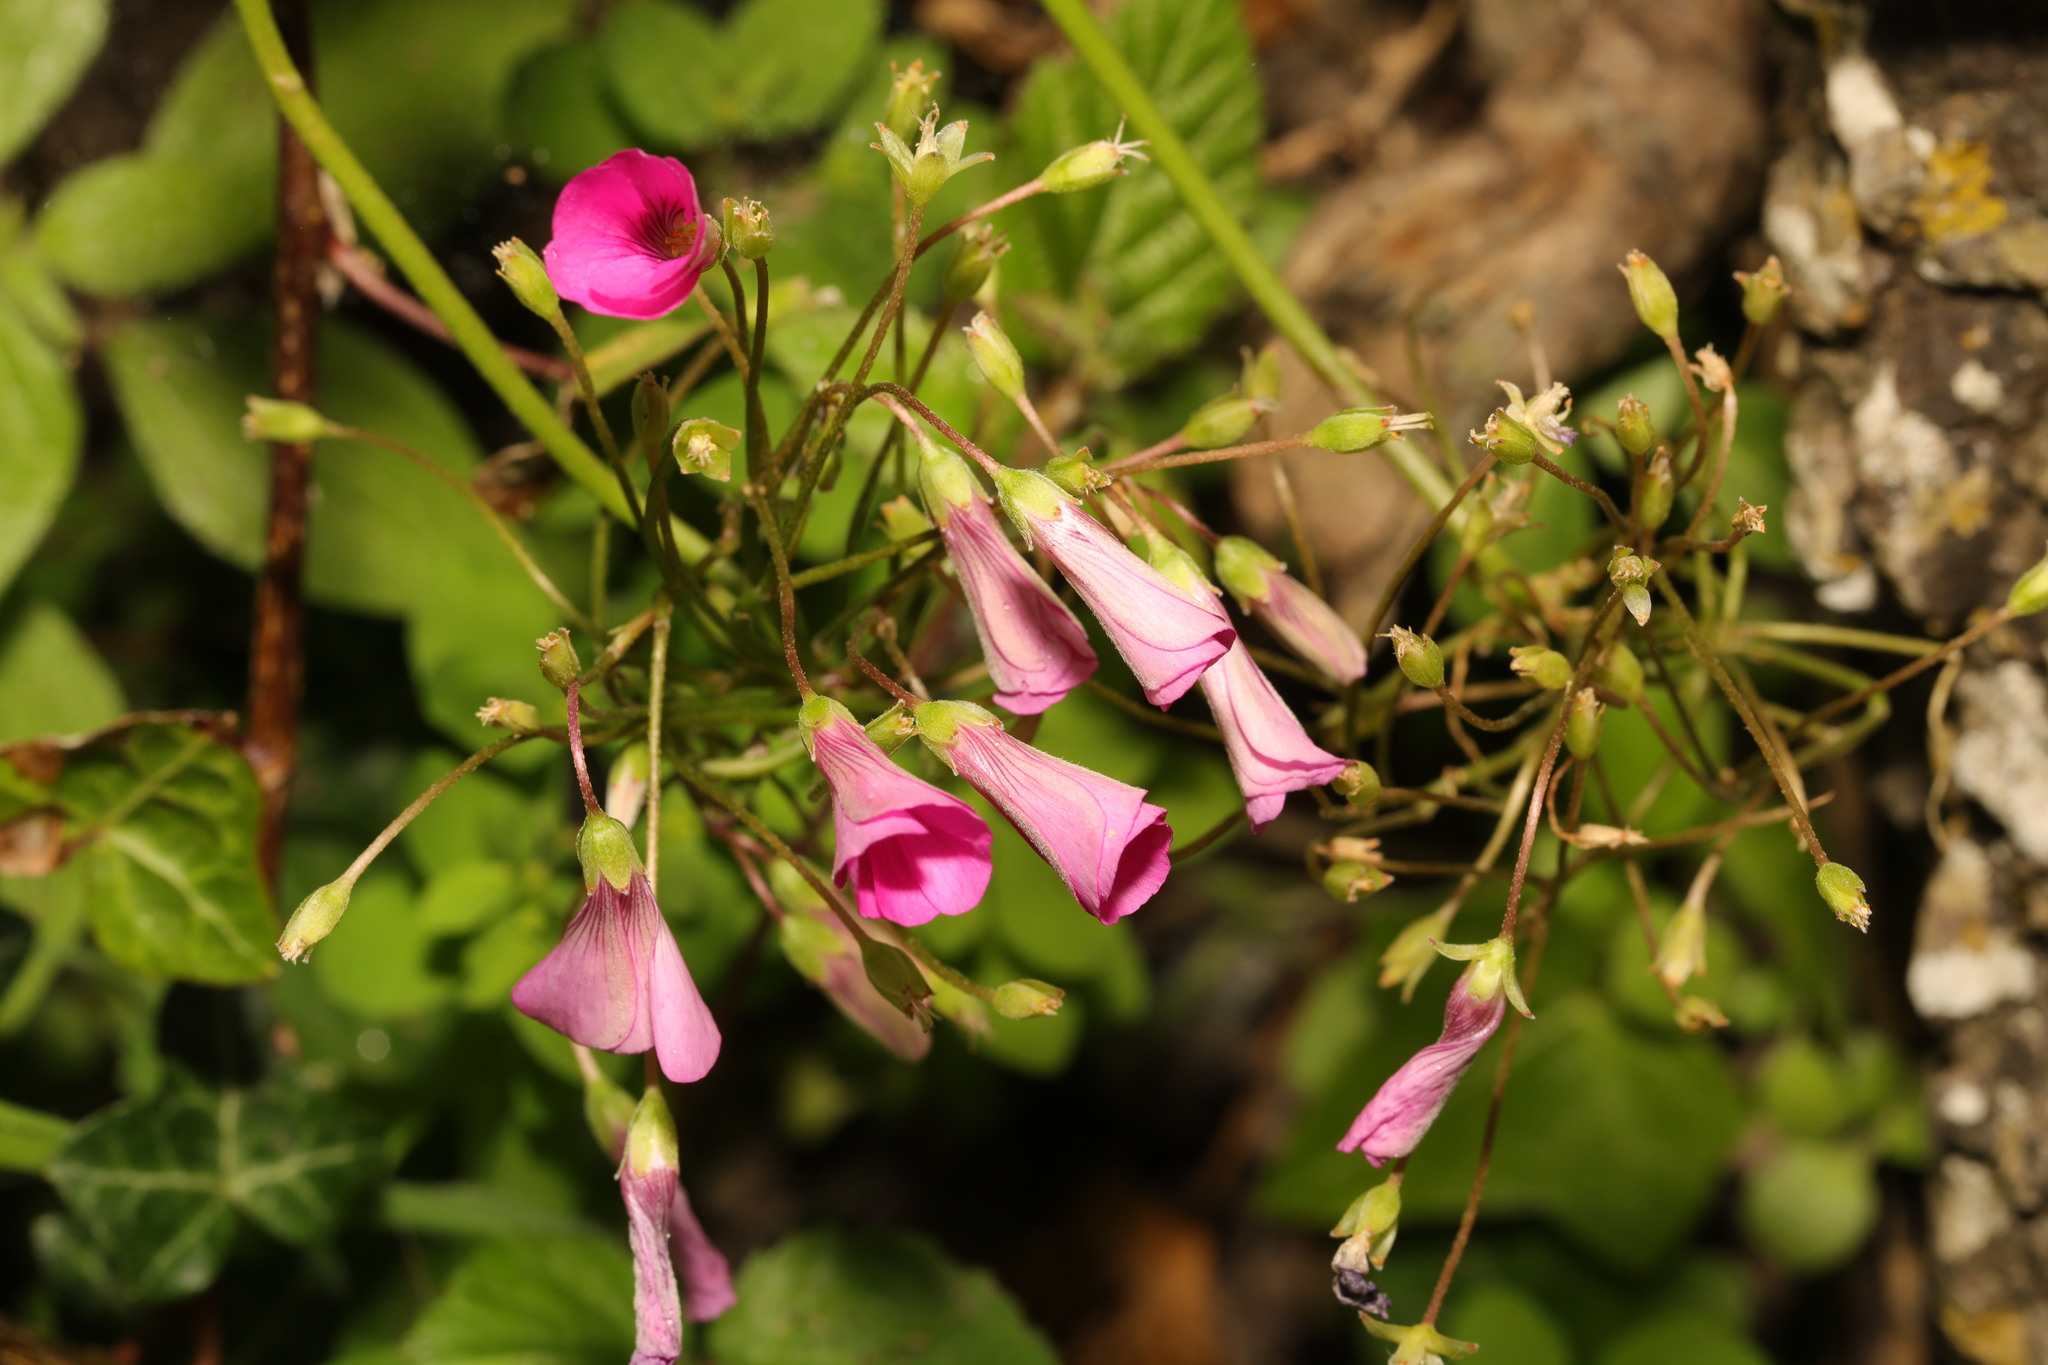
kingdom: Plantae
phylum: Tracheophyta
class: Magnoliopsida
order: Oxalidales
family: Oxalidaceae
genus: Oxalis
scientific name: Oxalis articulata
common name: Pink-sorrel
